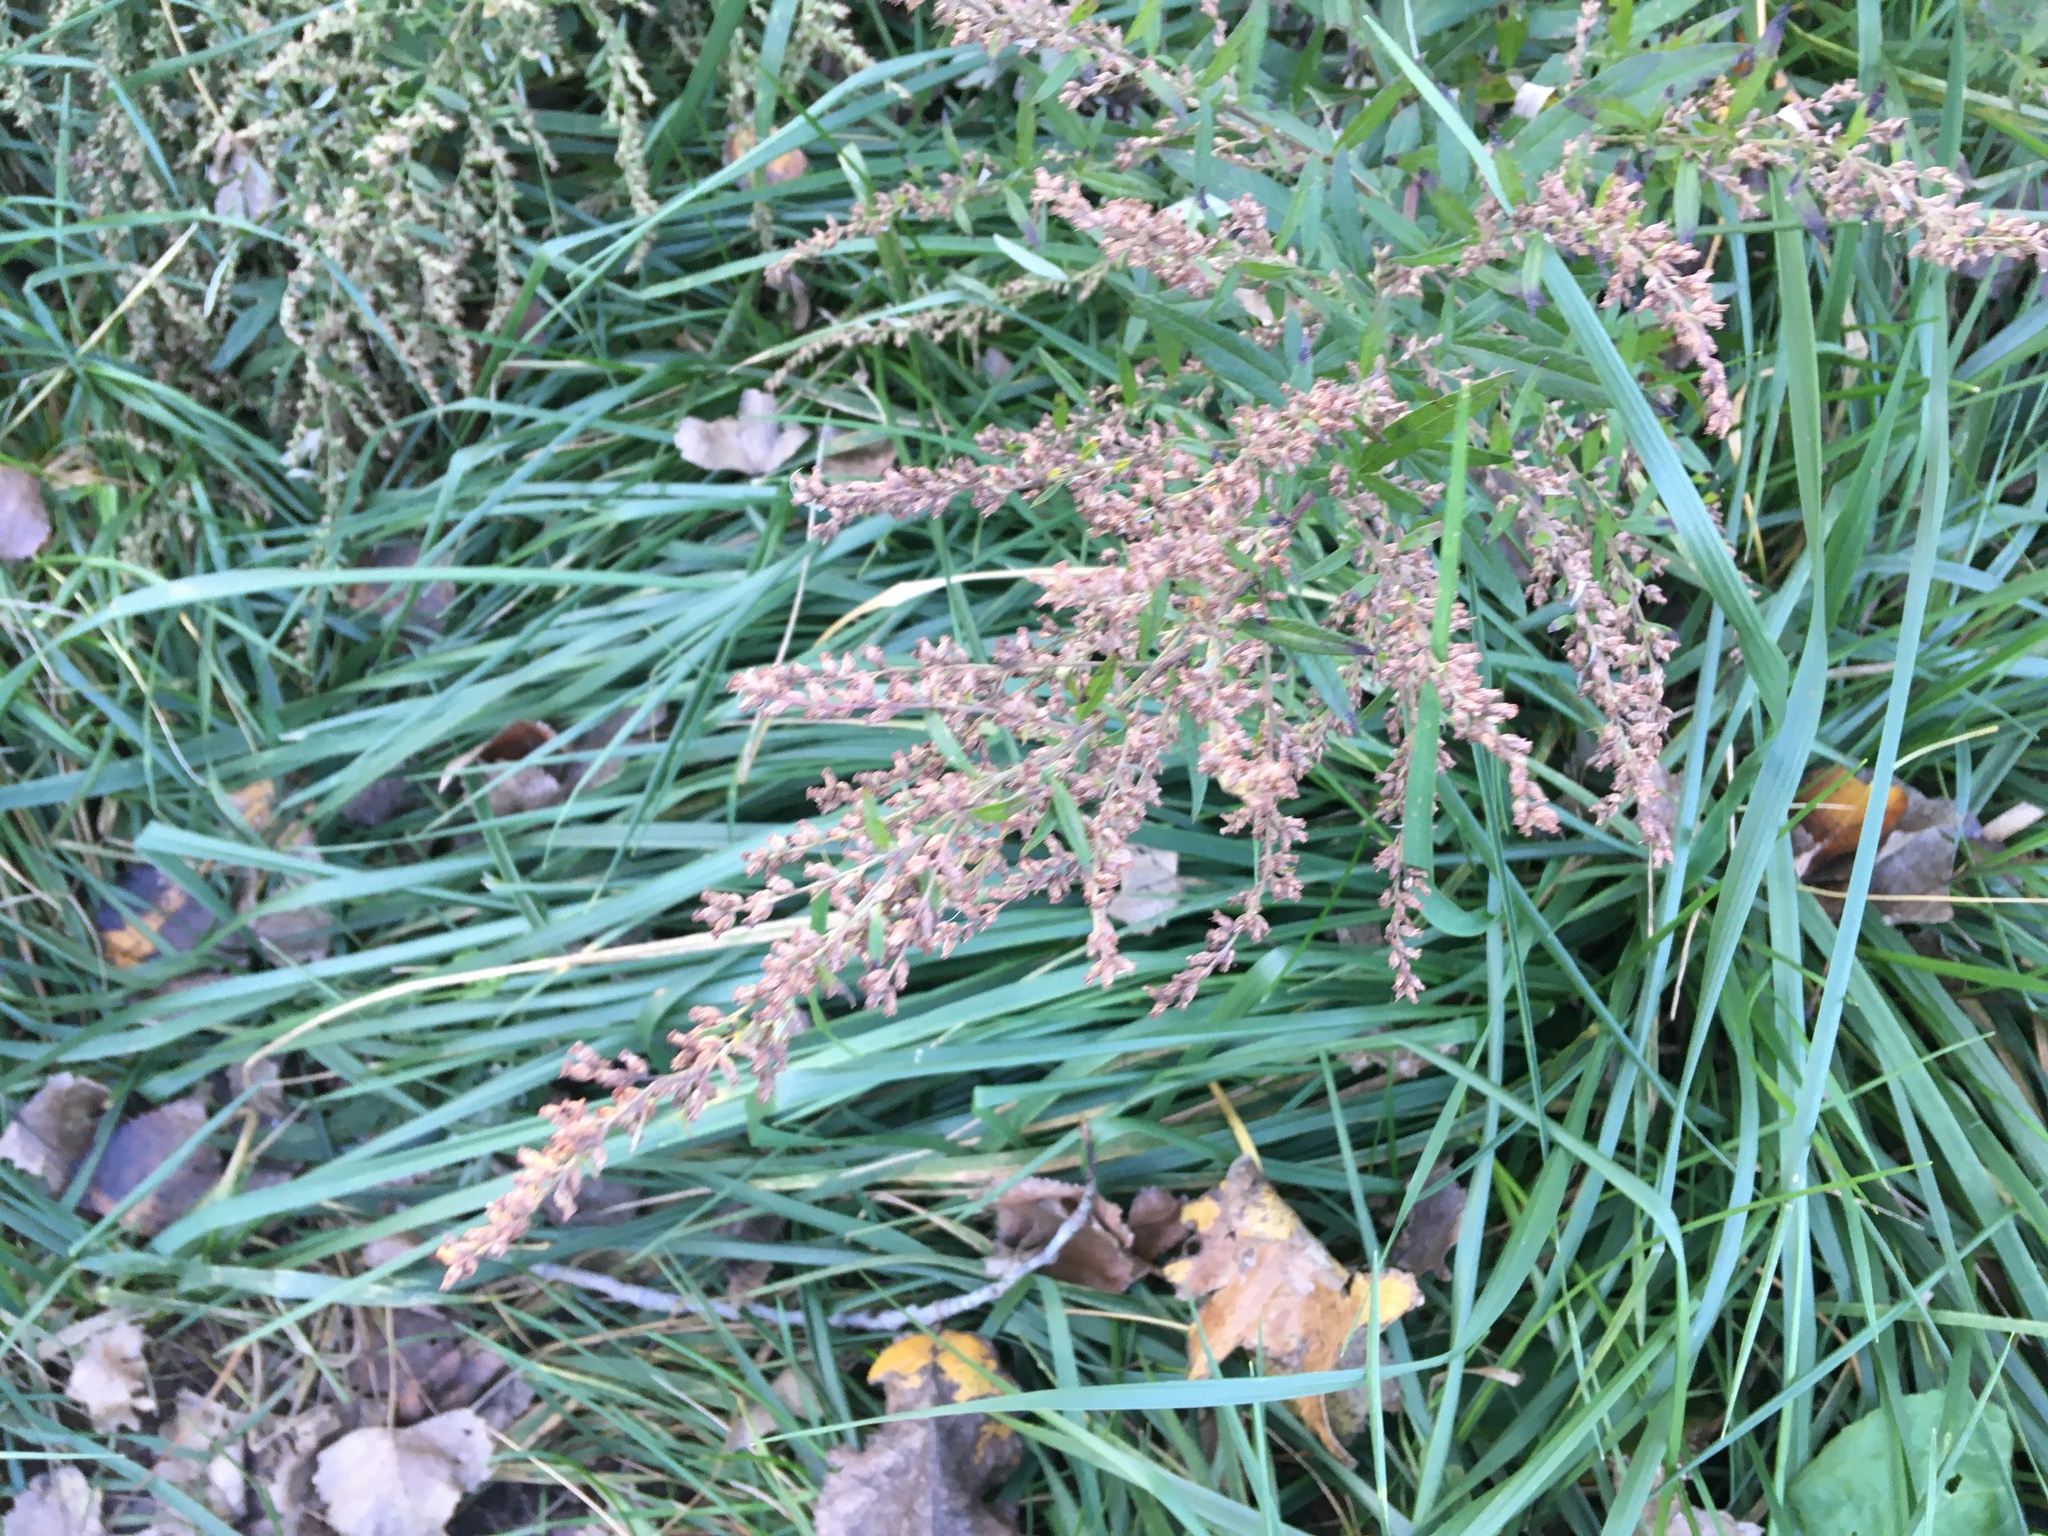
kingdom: Plantae
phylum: Tracheophyta
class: Magnoliopsida
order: Asterales
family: Asteraceae
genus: Artemisia
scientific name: Artemisia vulgaris
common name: Mugwort
